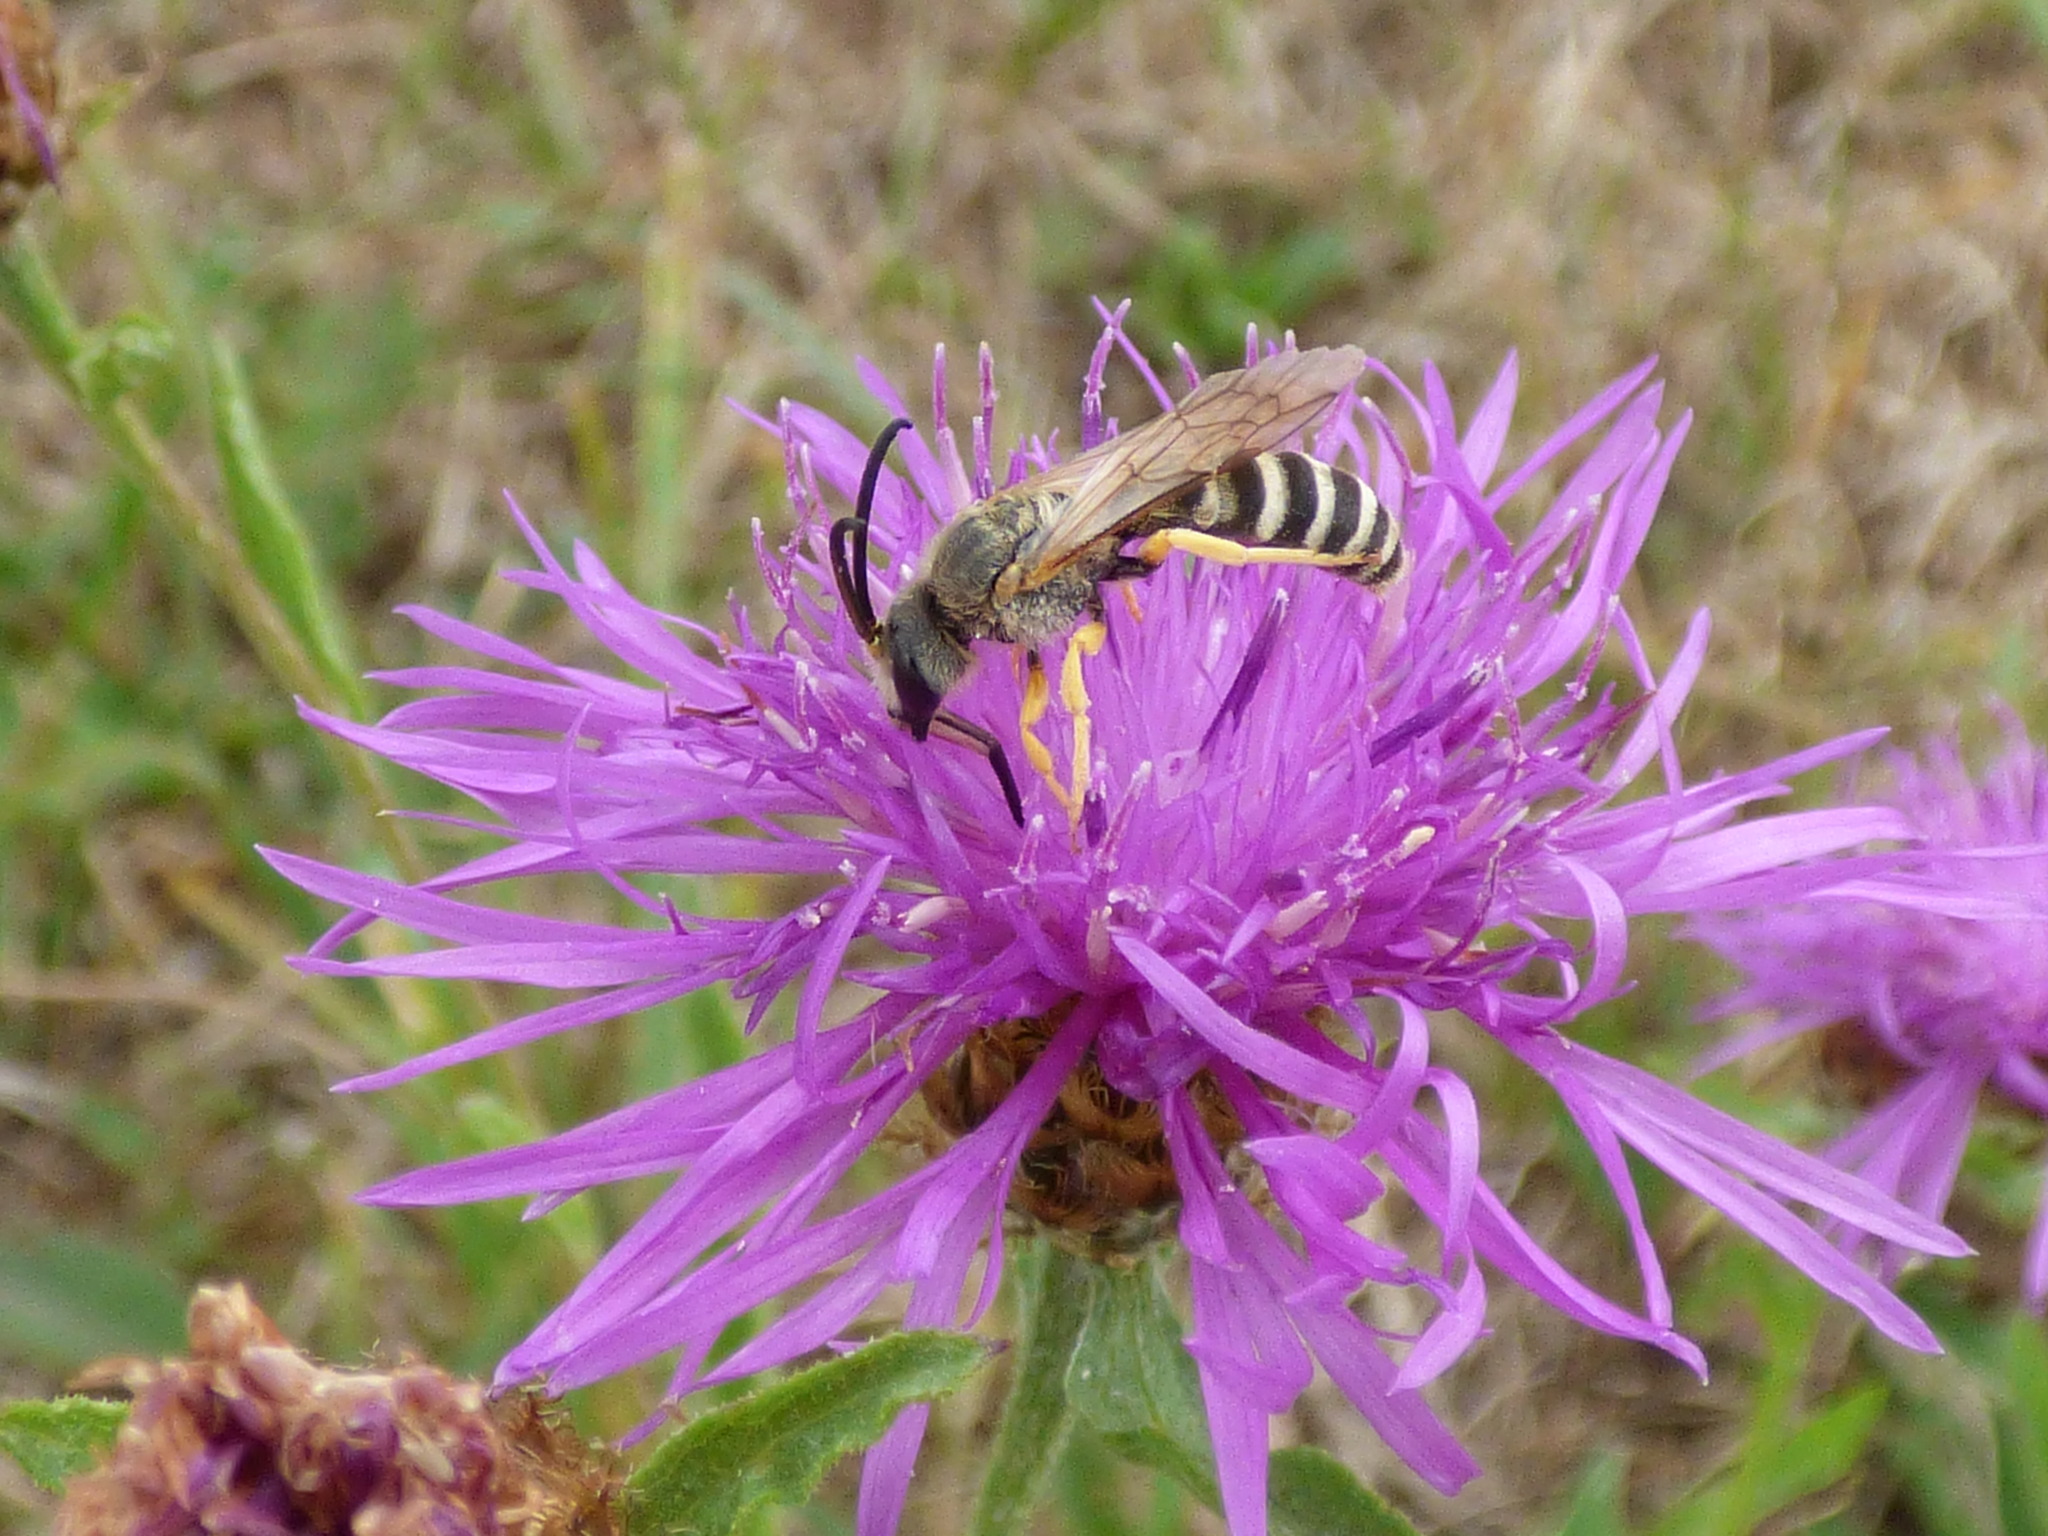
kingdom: Animalia
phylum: Arthropoda
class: Insecta
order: Hymenoptera
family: Halictidae
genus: Halictus
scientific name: Halictus scabiosae
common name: Great banded furrow bee
